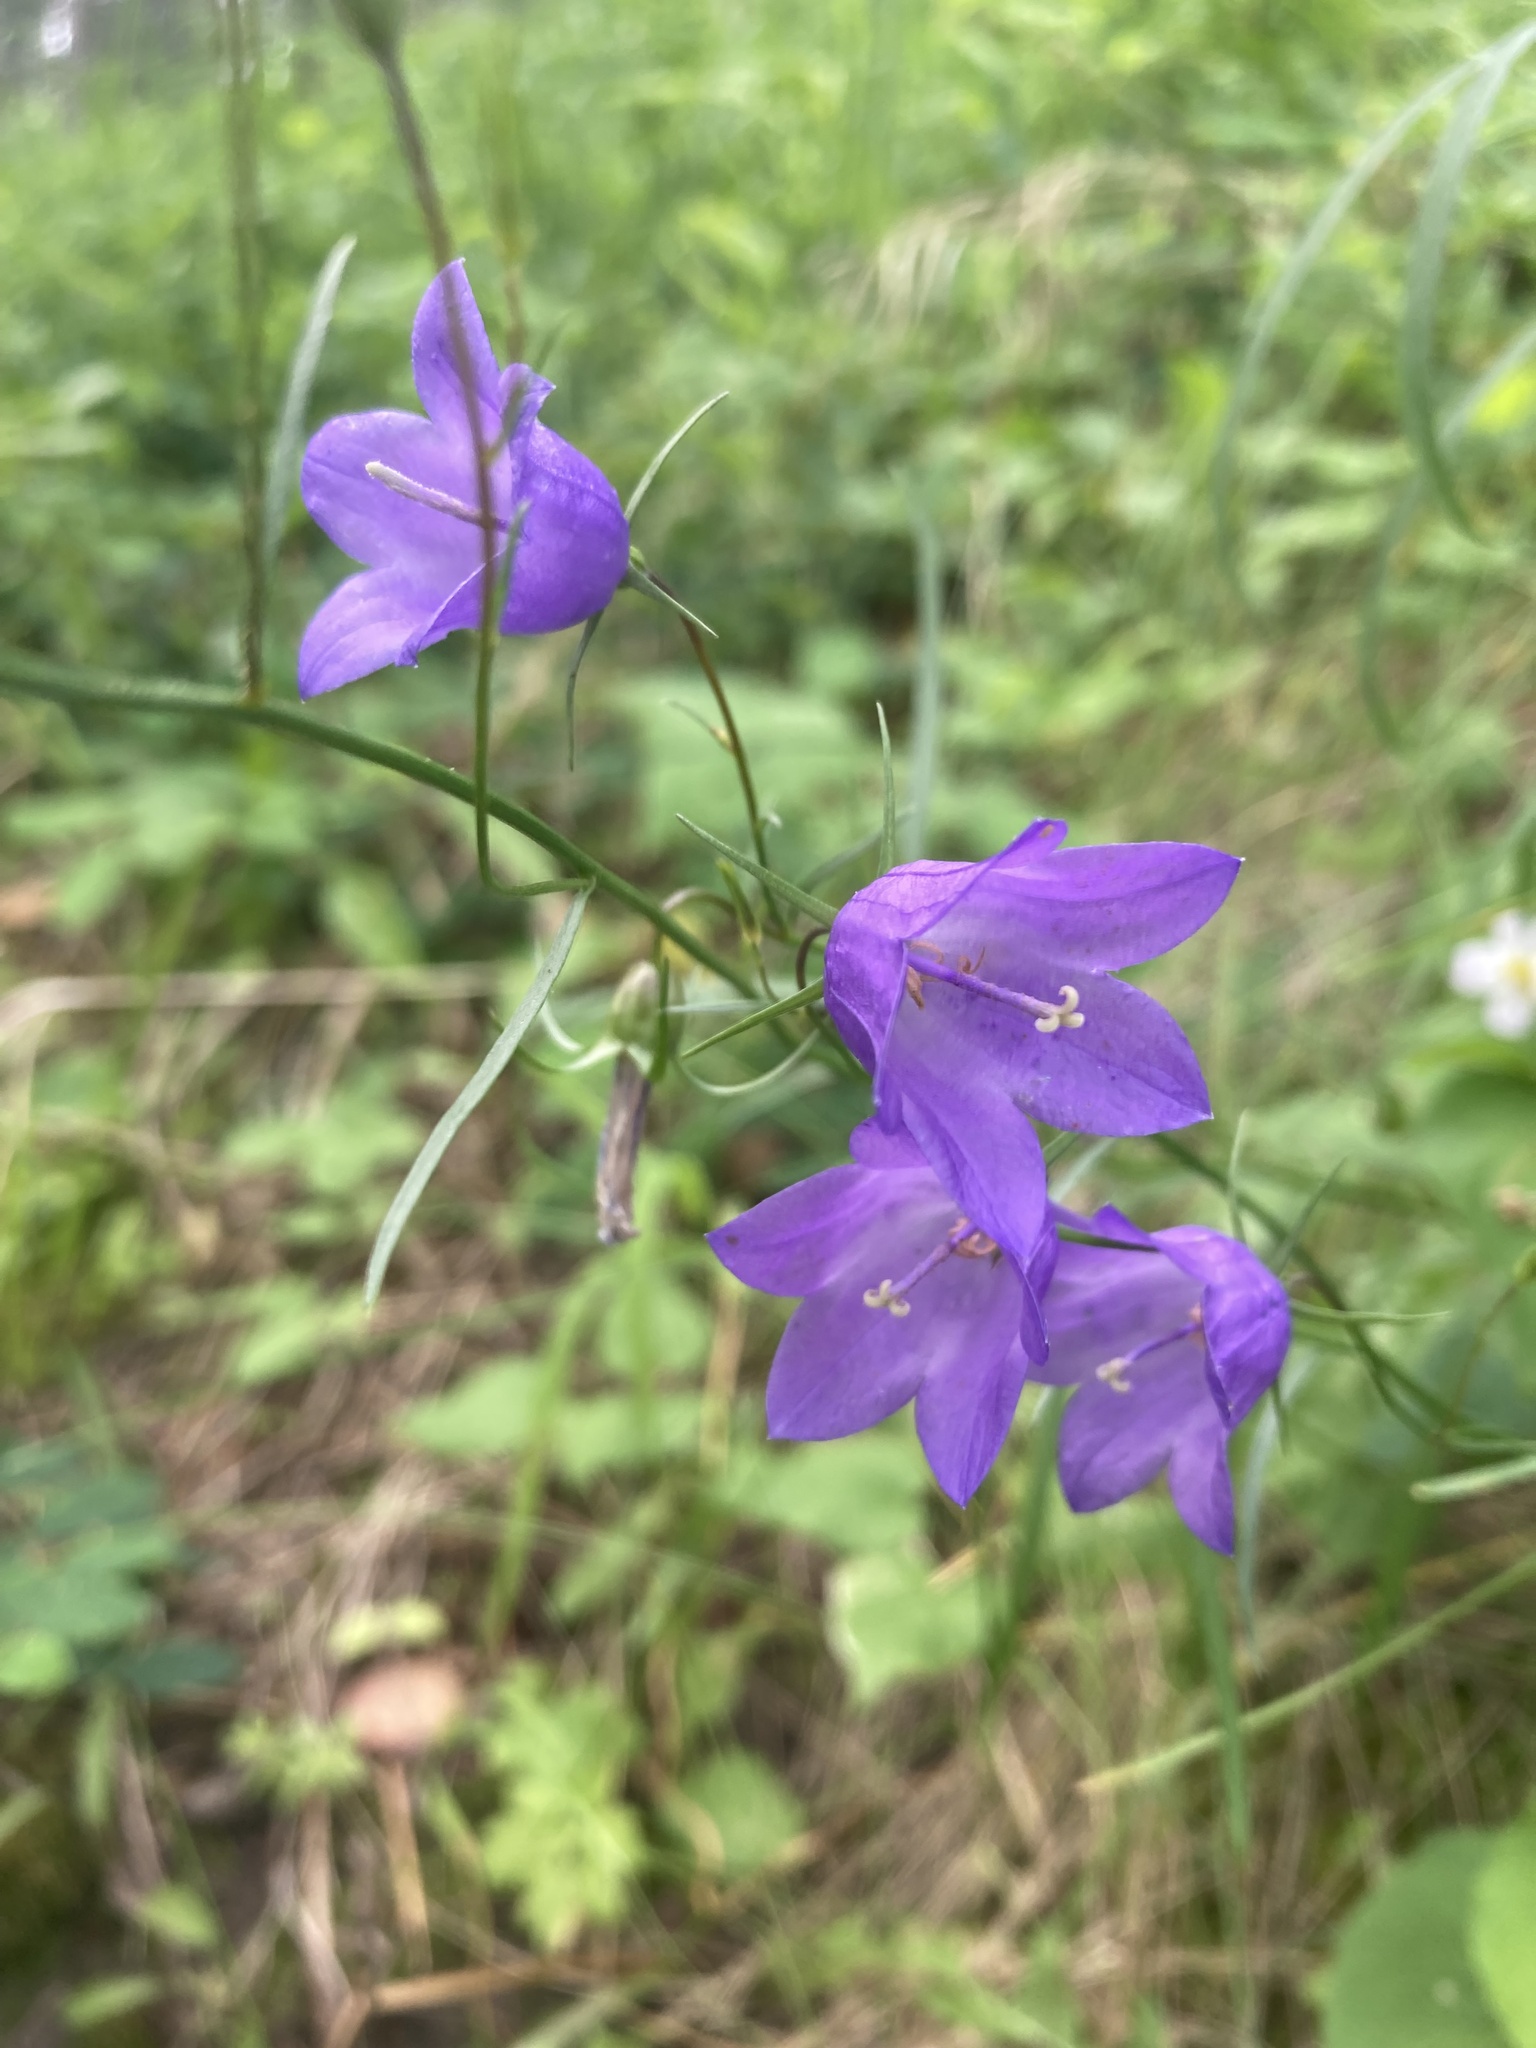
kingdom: Plantae
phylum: Tracheophyta
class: Magnoliopsida
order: Asterales
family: Campanulaceae
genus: Campanula
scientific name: Campanula alaskana
